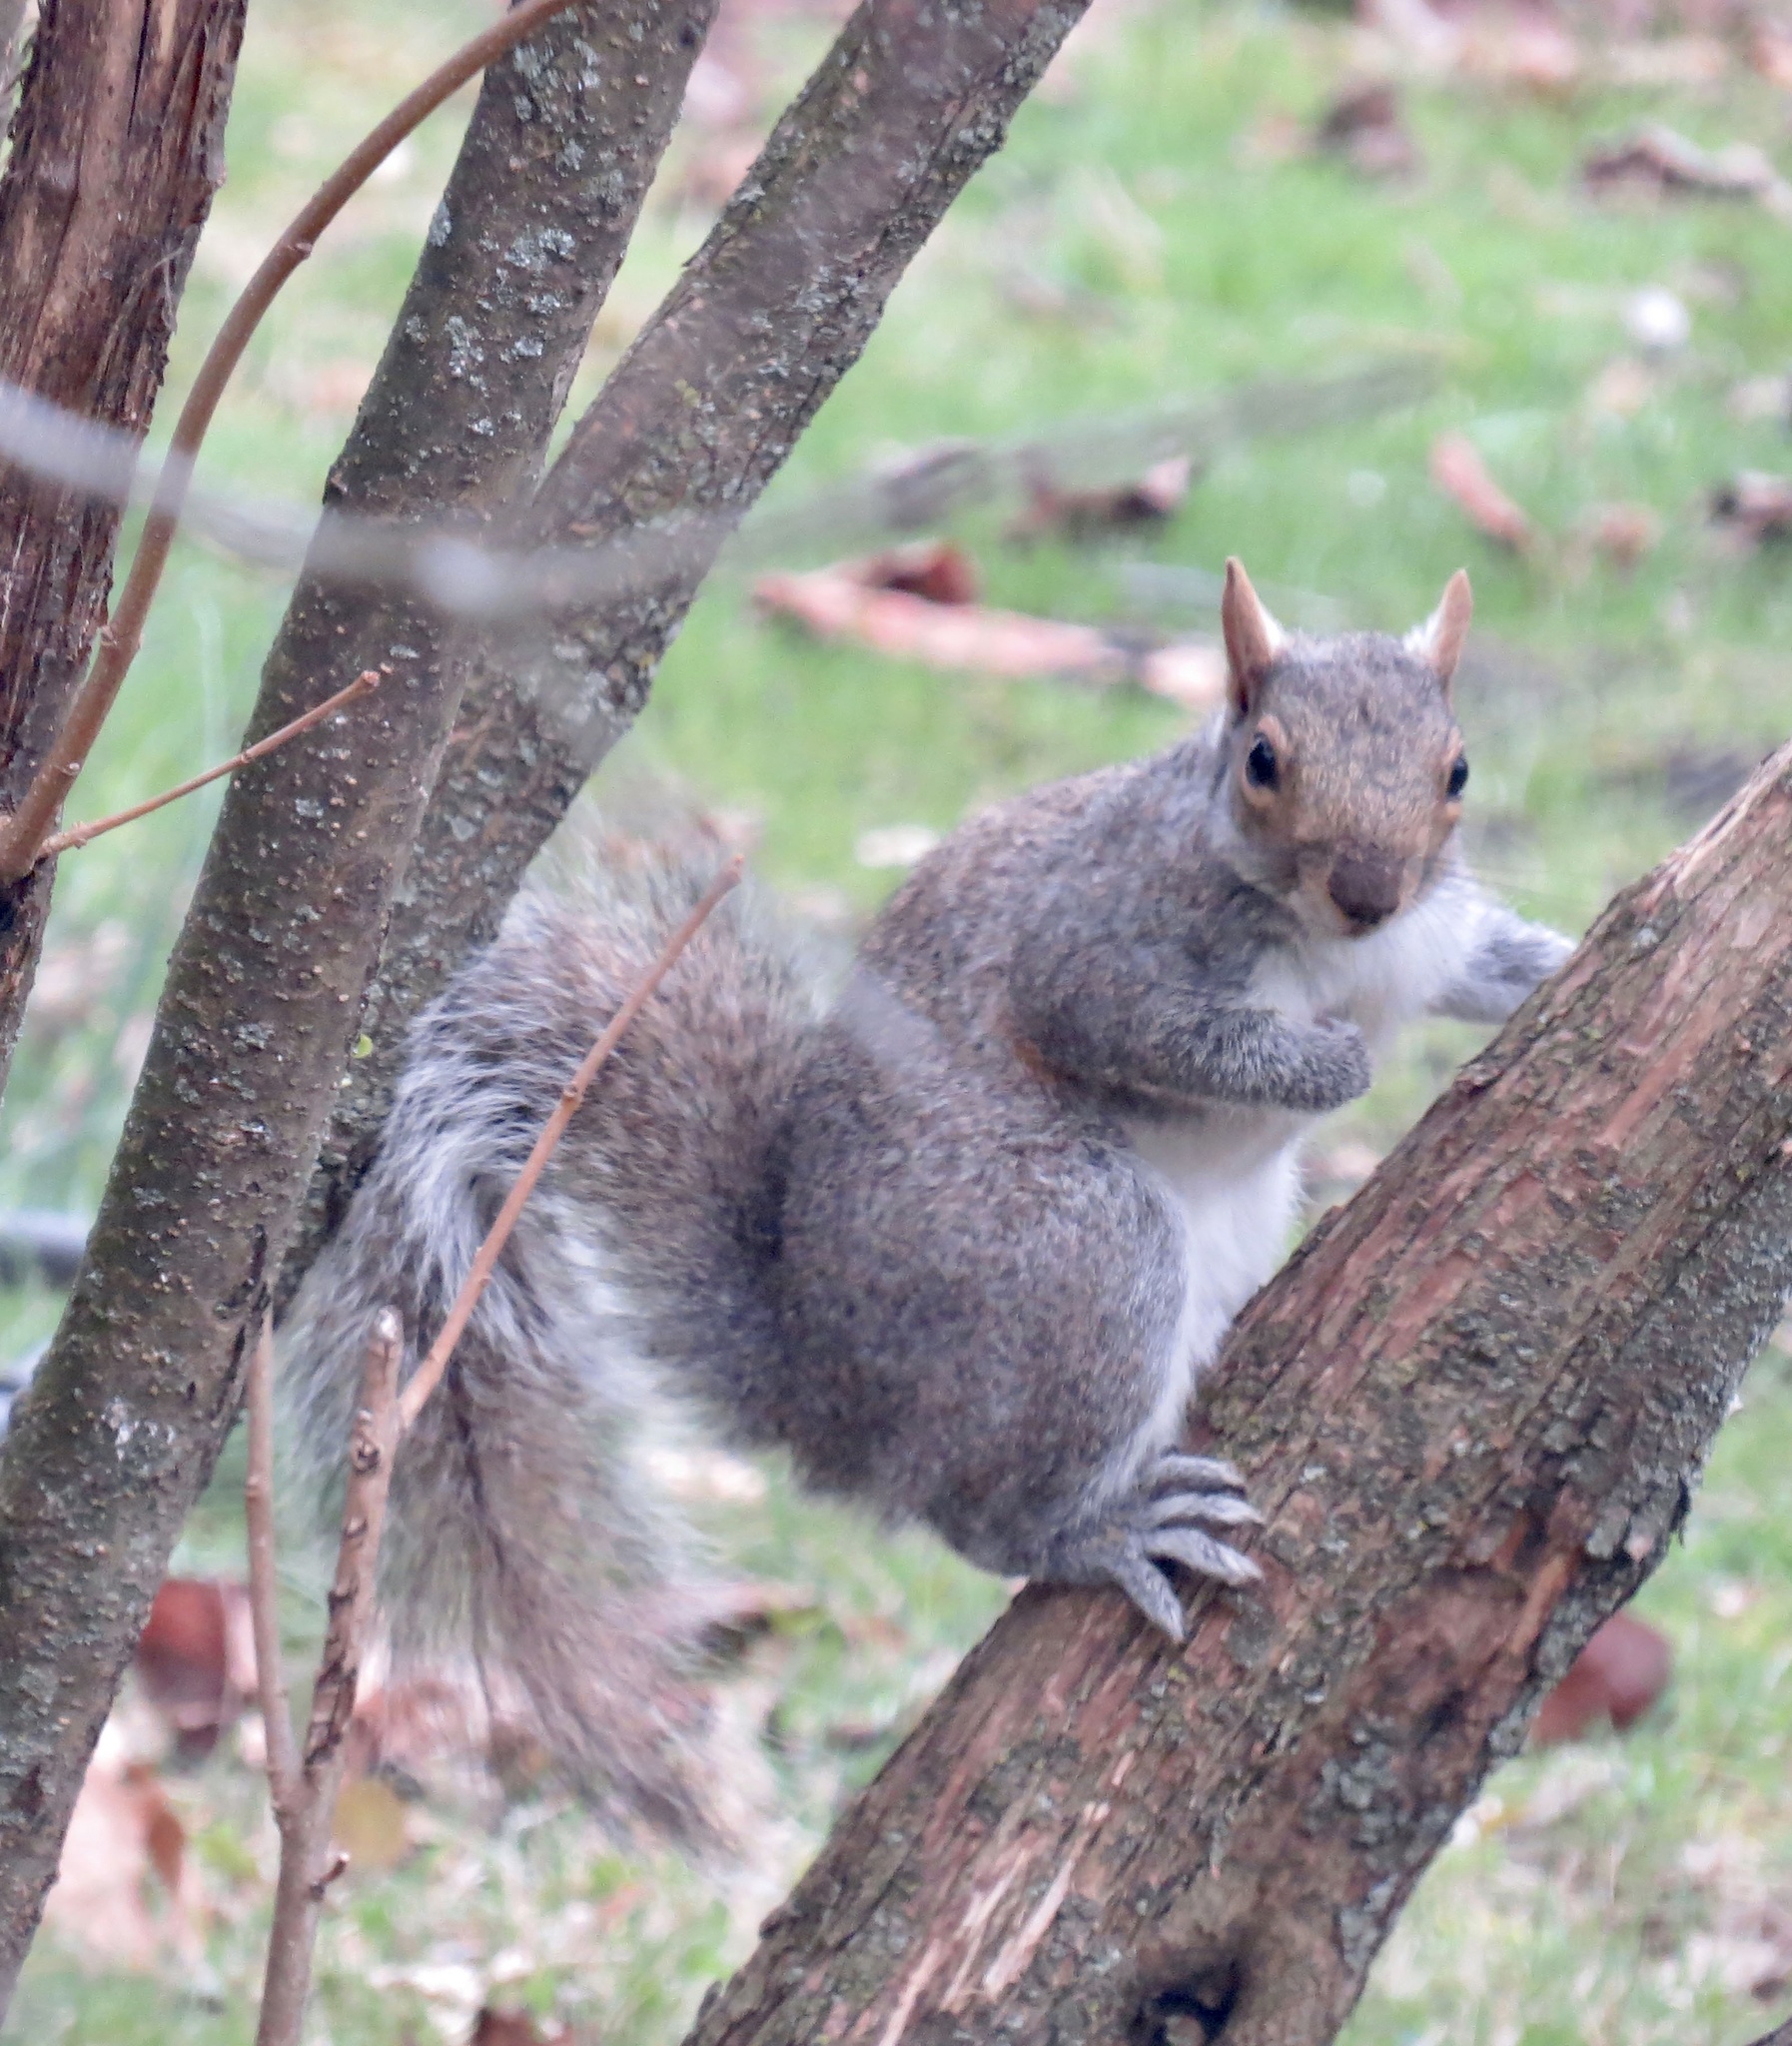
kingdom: Animalia
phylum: Chordata
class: Mammalia
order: Rodentia
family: Sciuridae
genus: Sciurus
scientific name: Sciurus carolinensis
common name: Eastern gray squirrel
